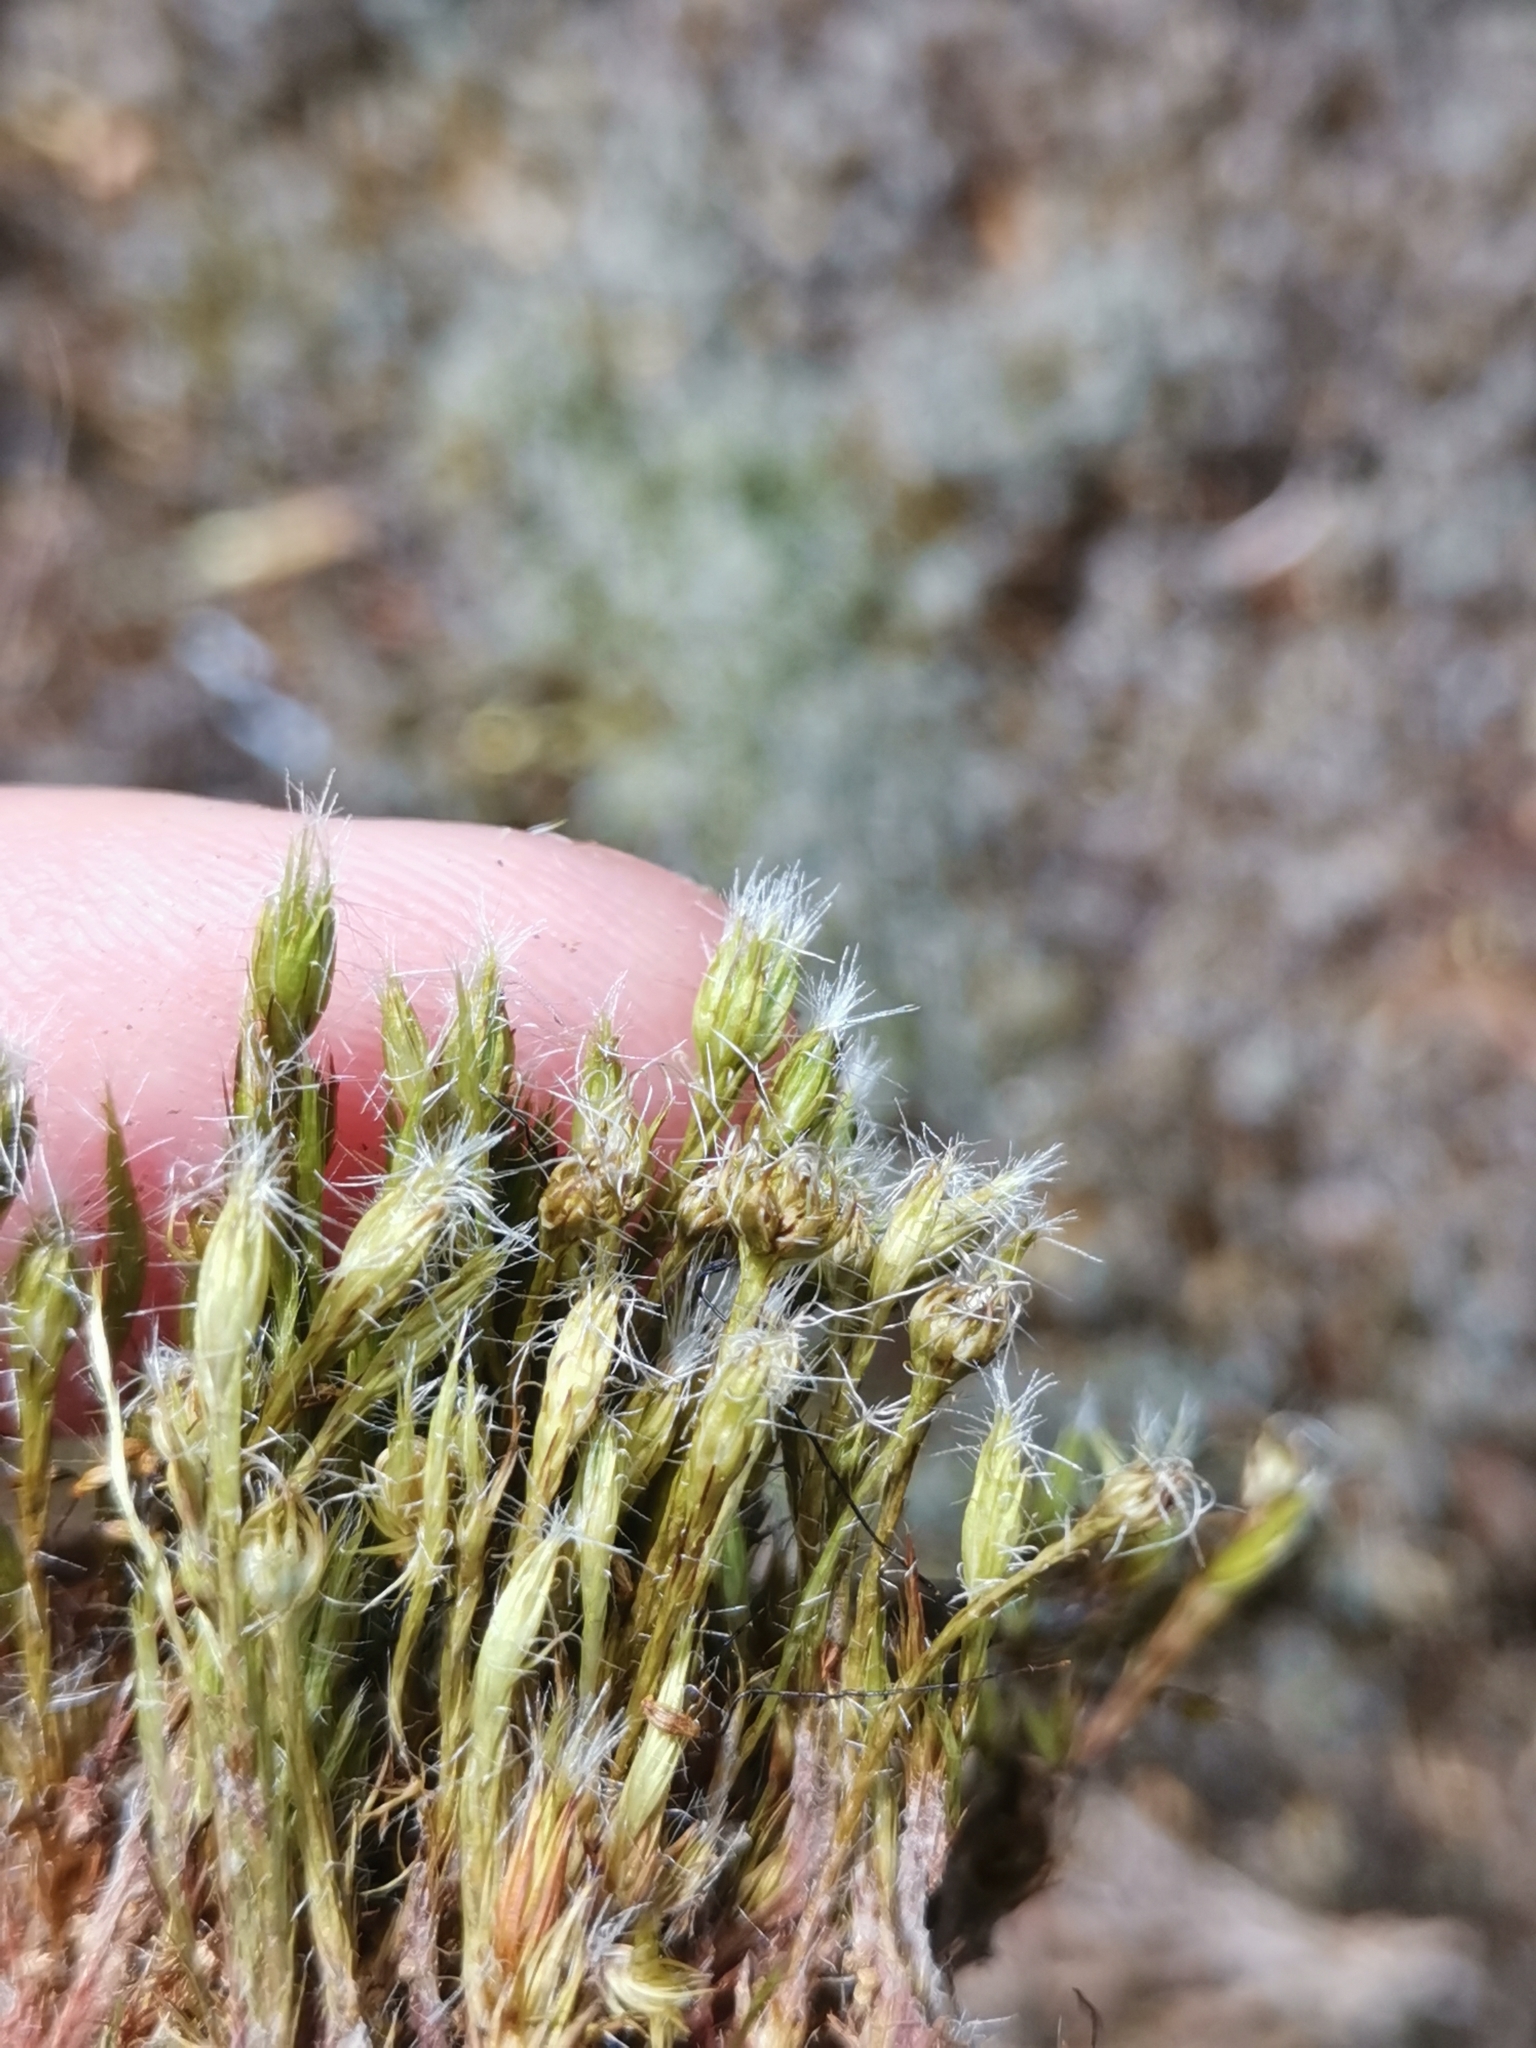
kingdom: Plantae
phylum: Bryophyta
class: Bryopsida
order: Dicranales
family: Leucobryaceae
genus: Campylopus
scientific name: Campylopus introflexus
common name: Heath star moss
